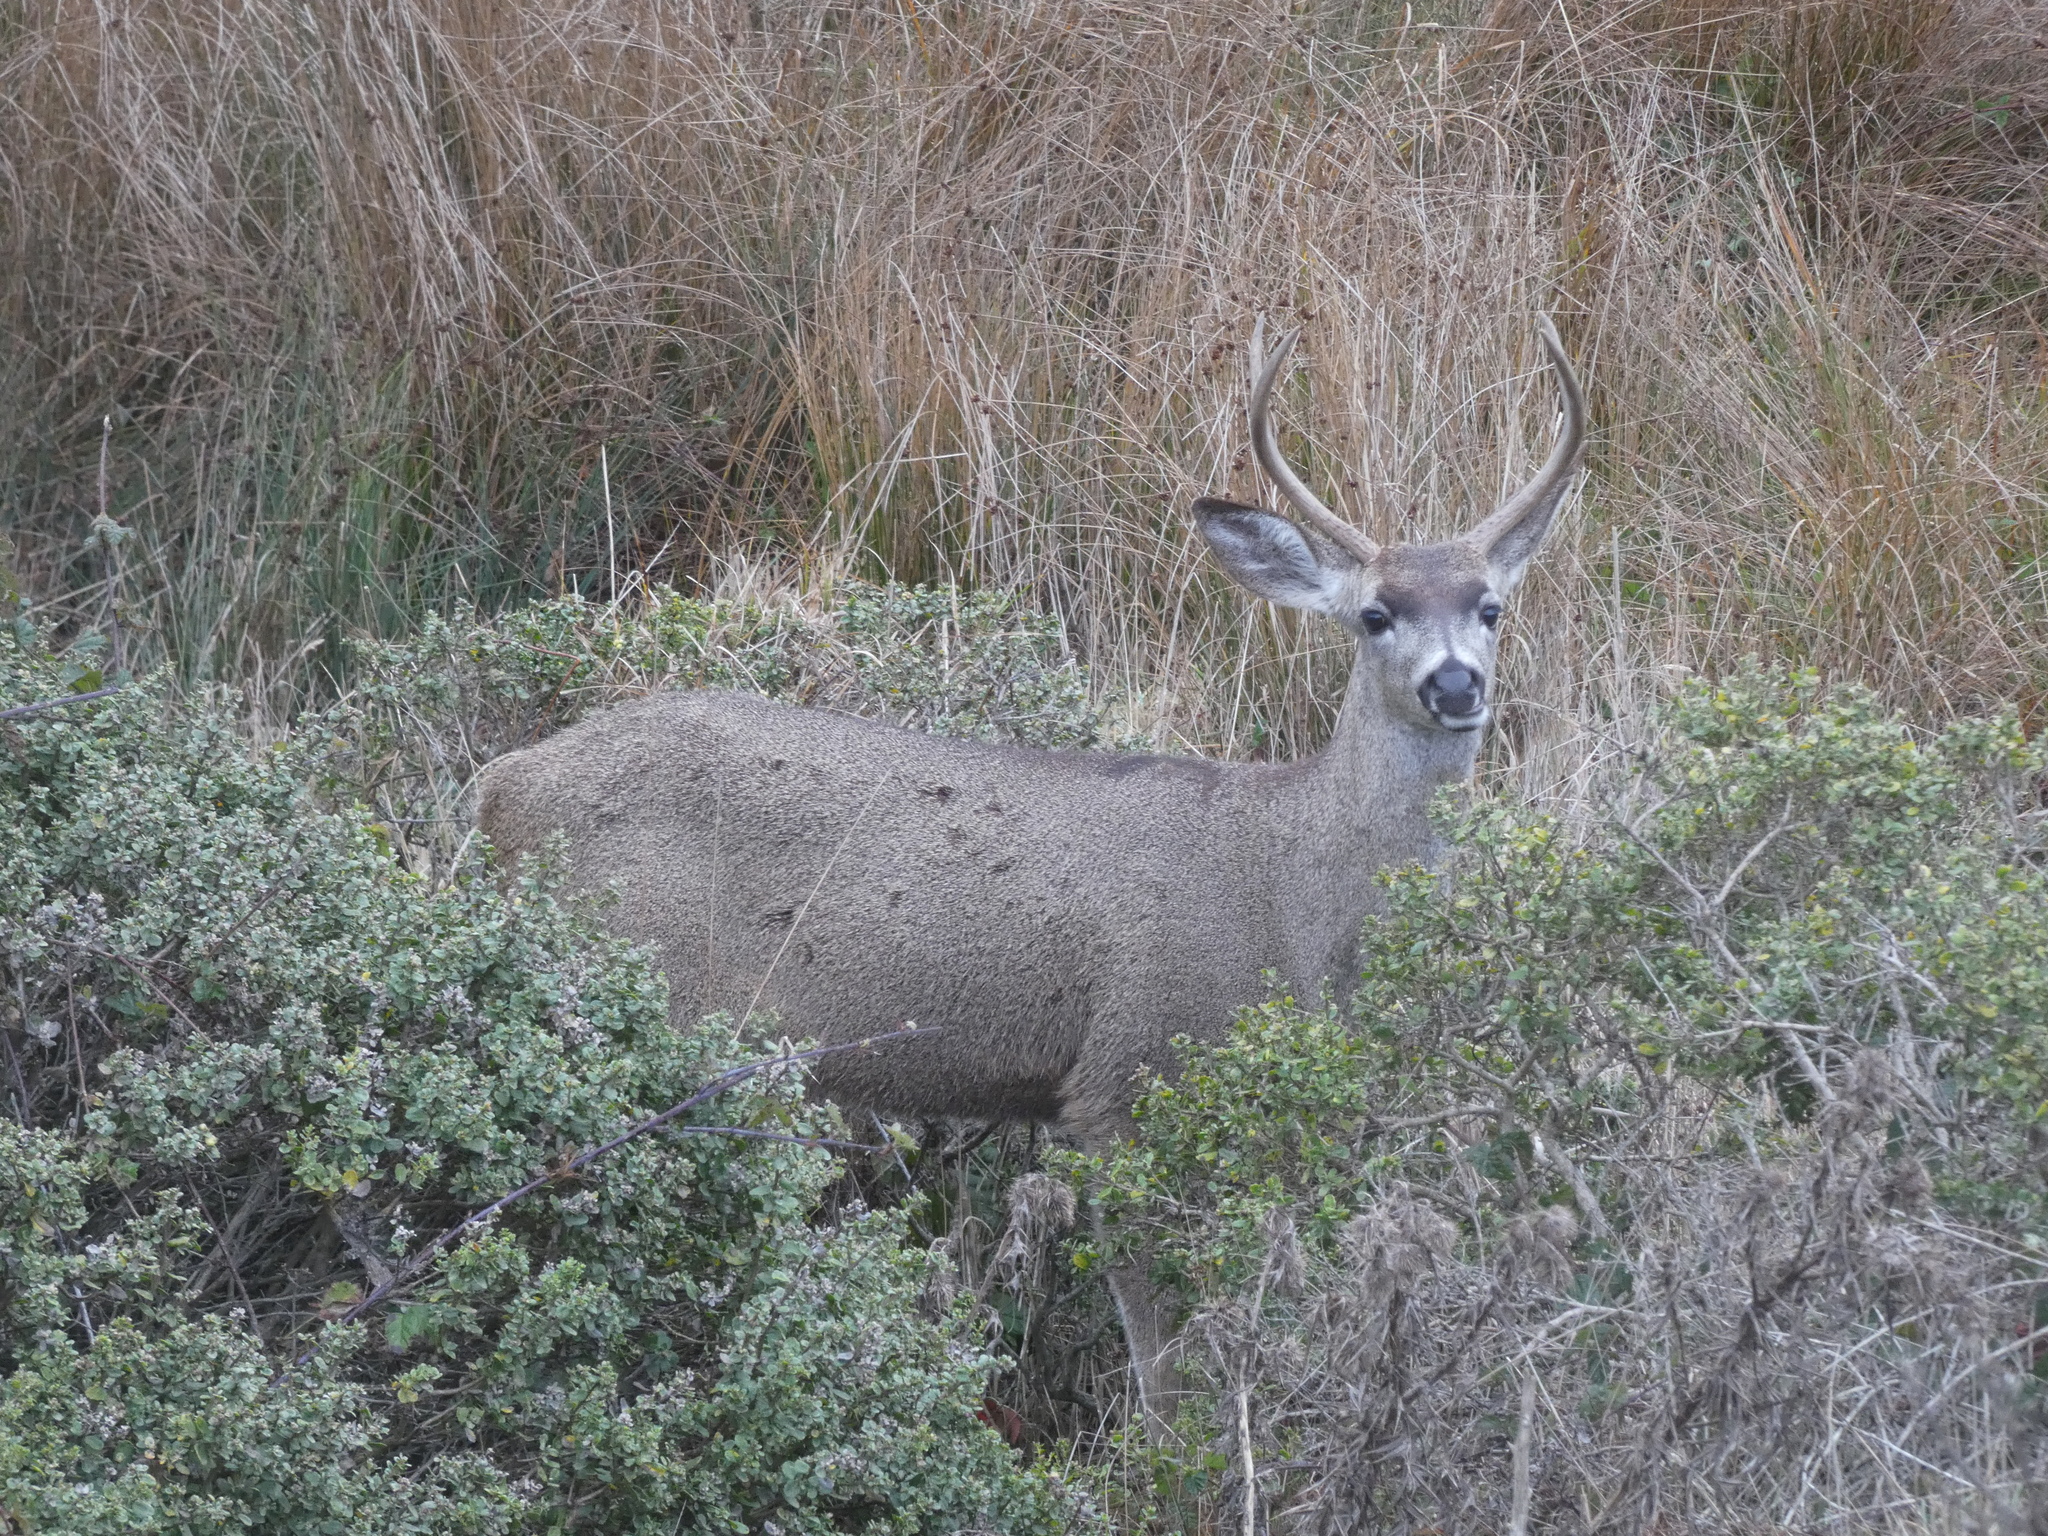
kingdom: Animalia
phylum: Chordata
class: Mammalia
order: Artiodactyla
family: Cervidae
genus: Odocoileus
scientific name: Odocoileus hemionus
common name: Mule deer
